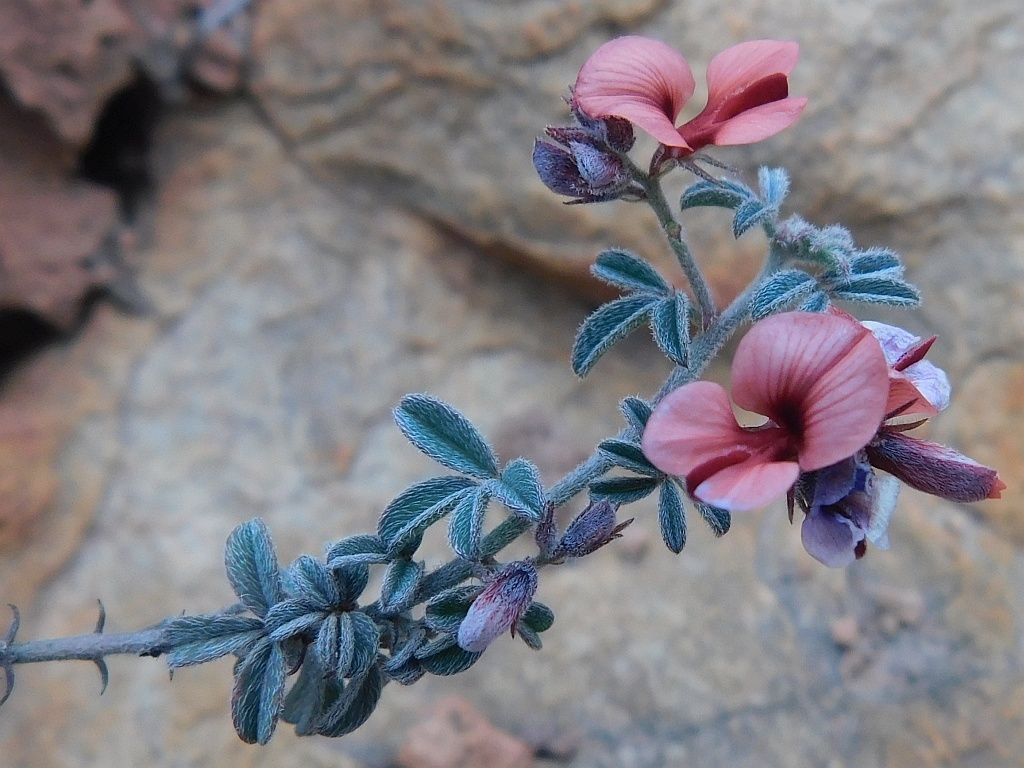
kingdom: Plantae
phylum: Tracheophyta
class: Magnoliopsida
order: Fabales
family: Fabaceae
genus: Indigofera
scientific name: Indigofera priorii
